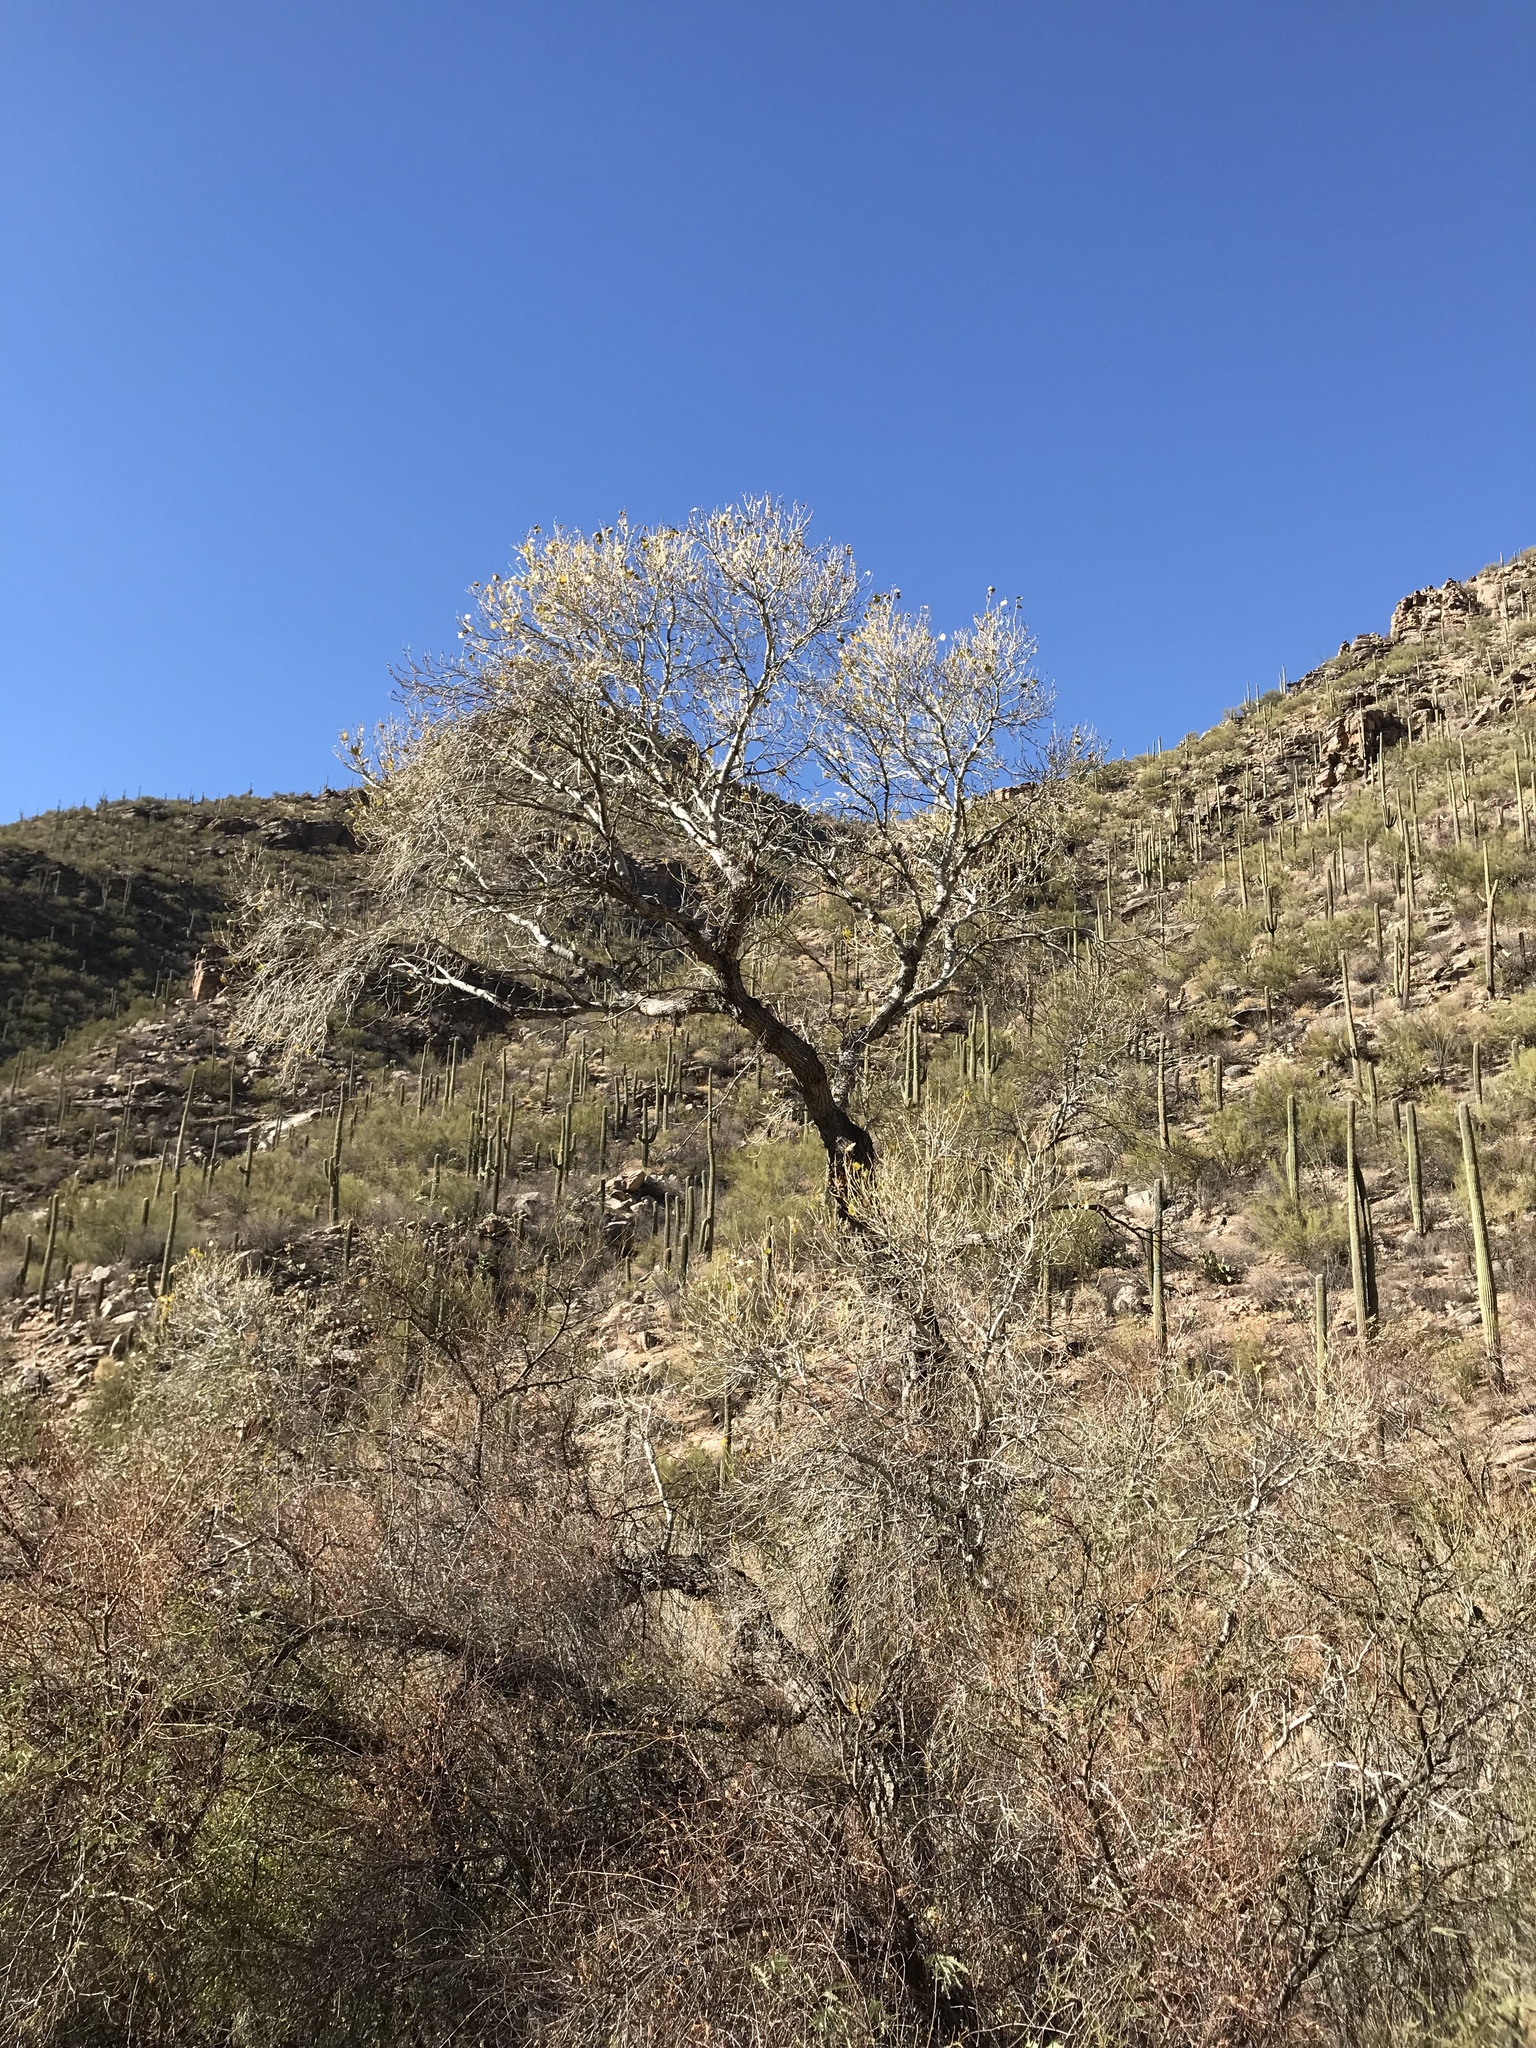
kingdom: Plantae
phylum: Tracheophyta
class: Magnoliopsida
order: Malpighiales
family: Salicaceae
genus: Populus
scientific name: Populus fremontii
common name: Fremont's cottonwood
